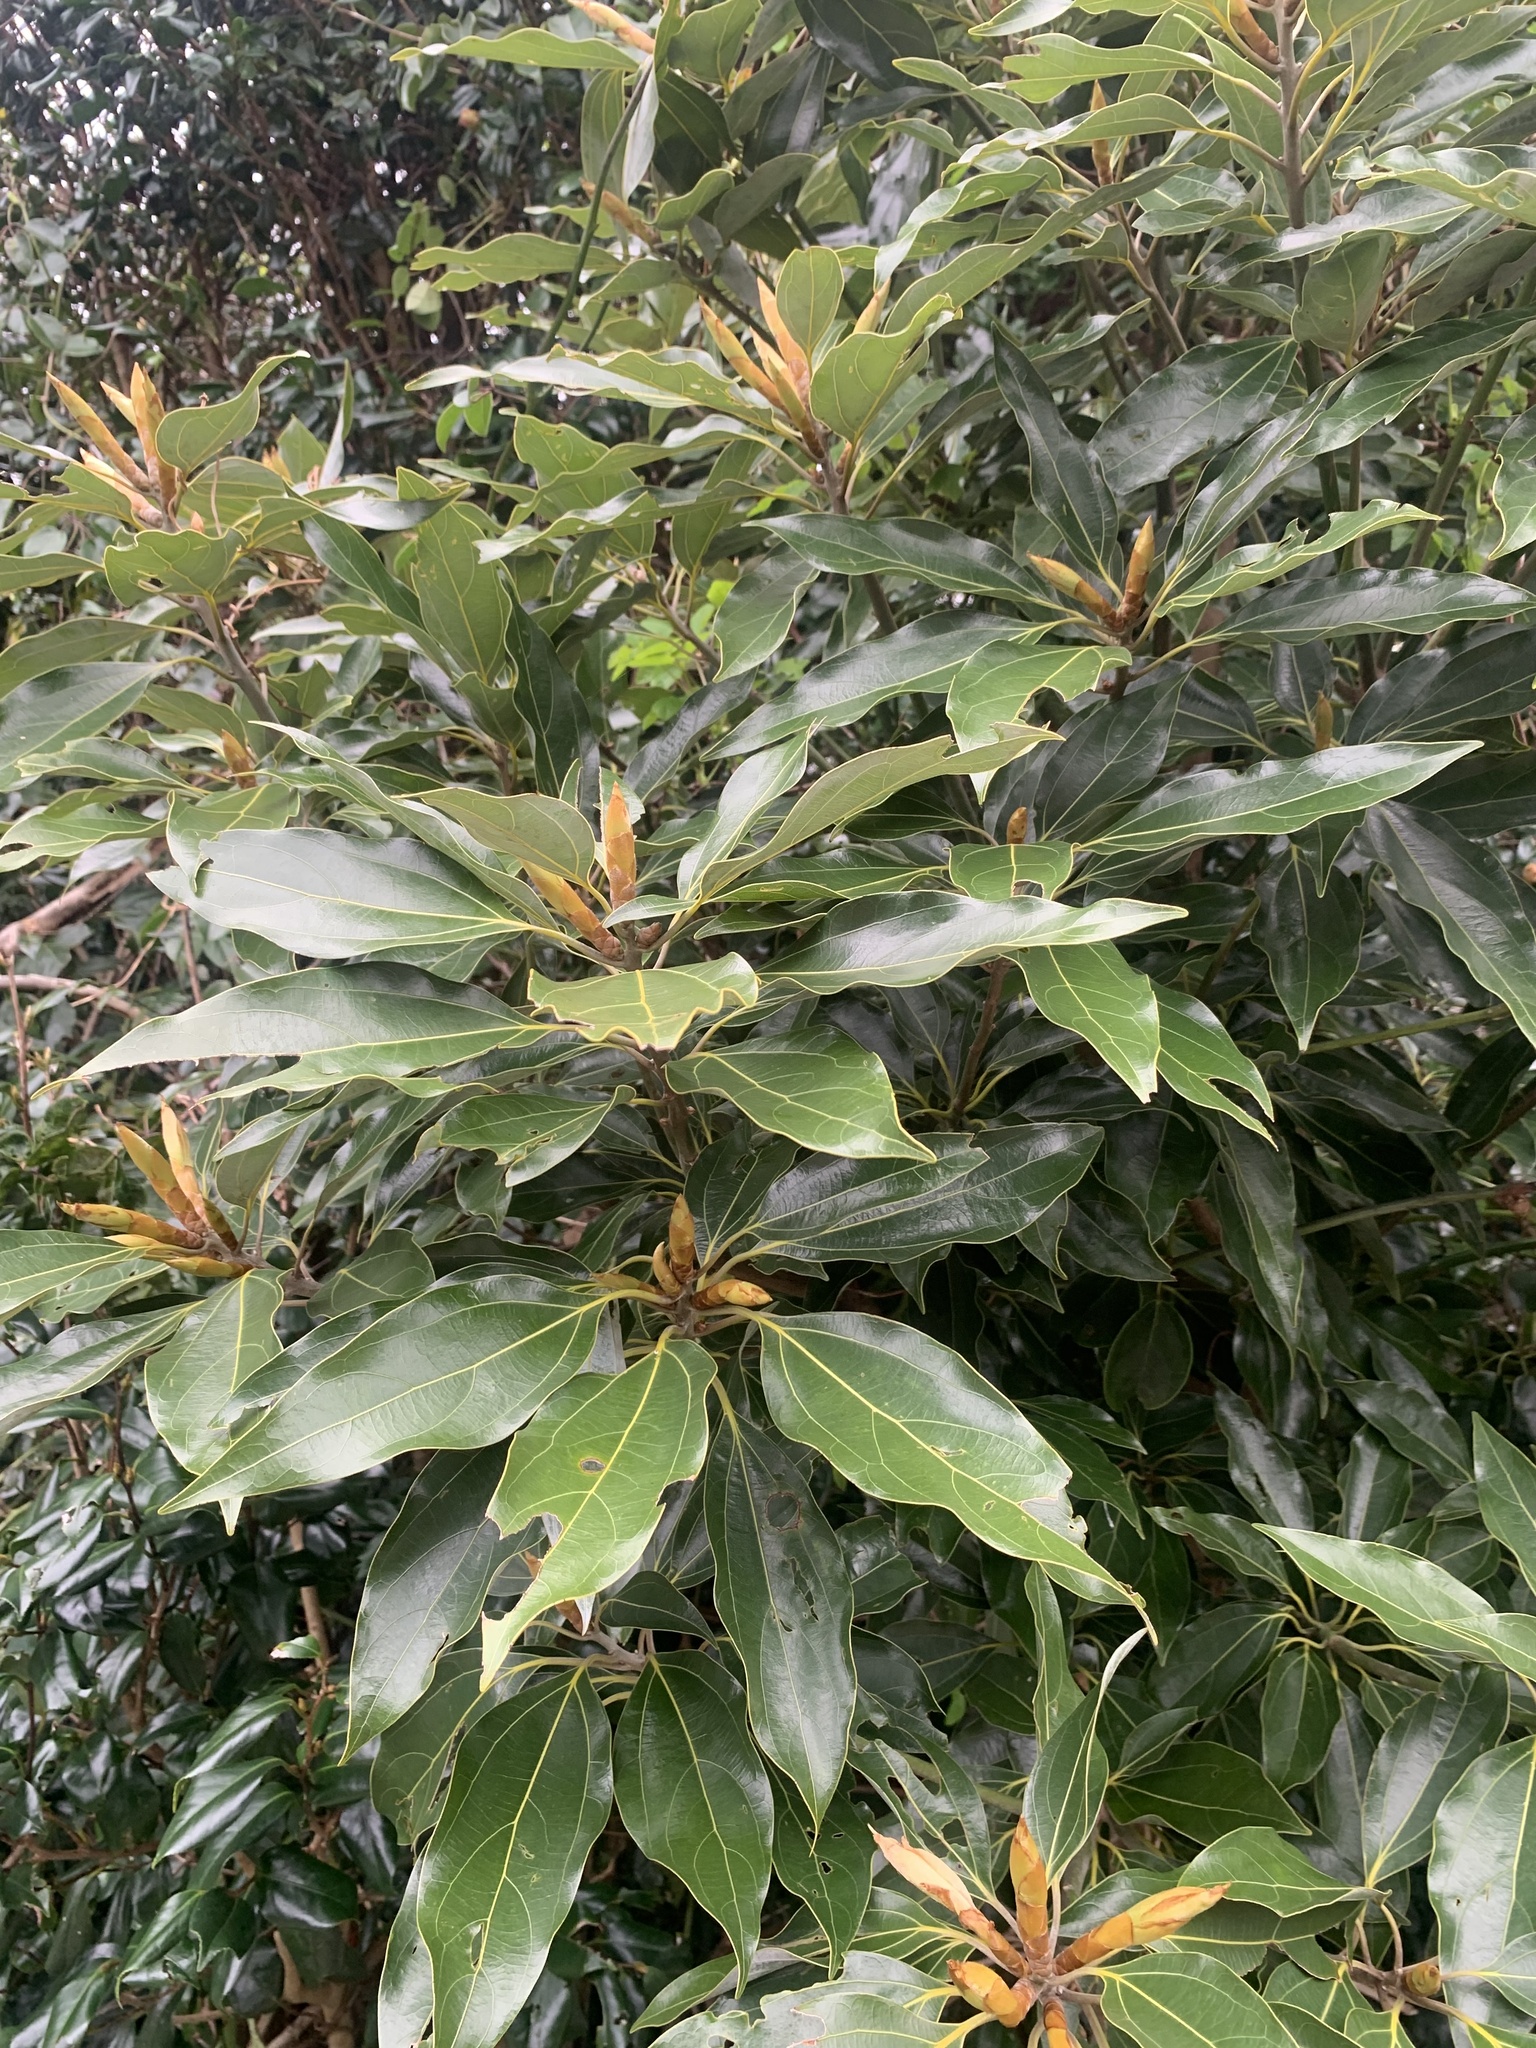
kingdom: Plantae
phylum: Tracheophyta
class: Magnoliopsida
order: Laurales
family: Lauraceae
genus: Neolitsea
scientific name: Neolitsea sericea
